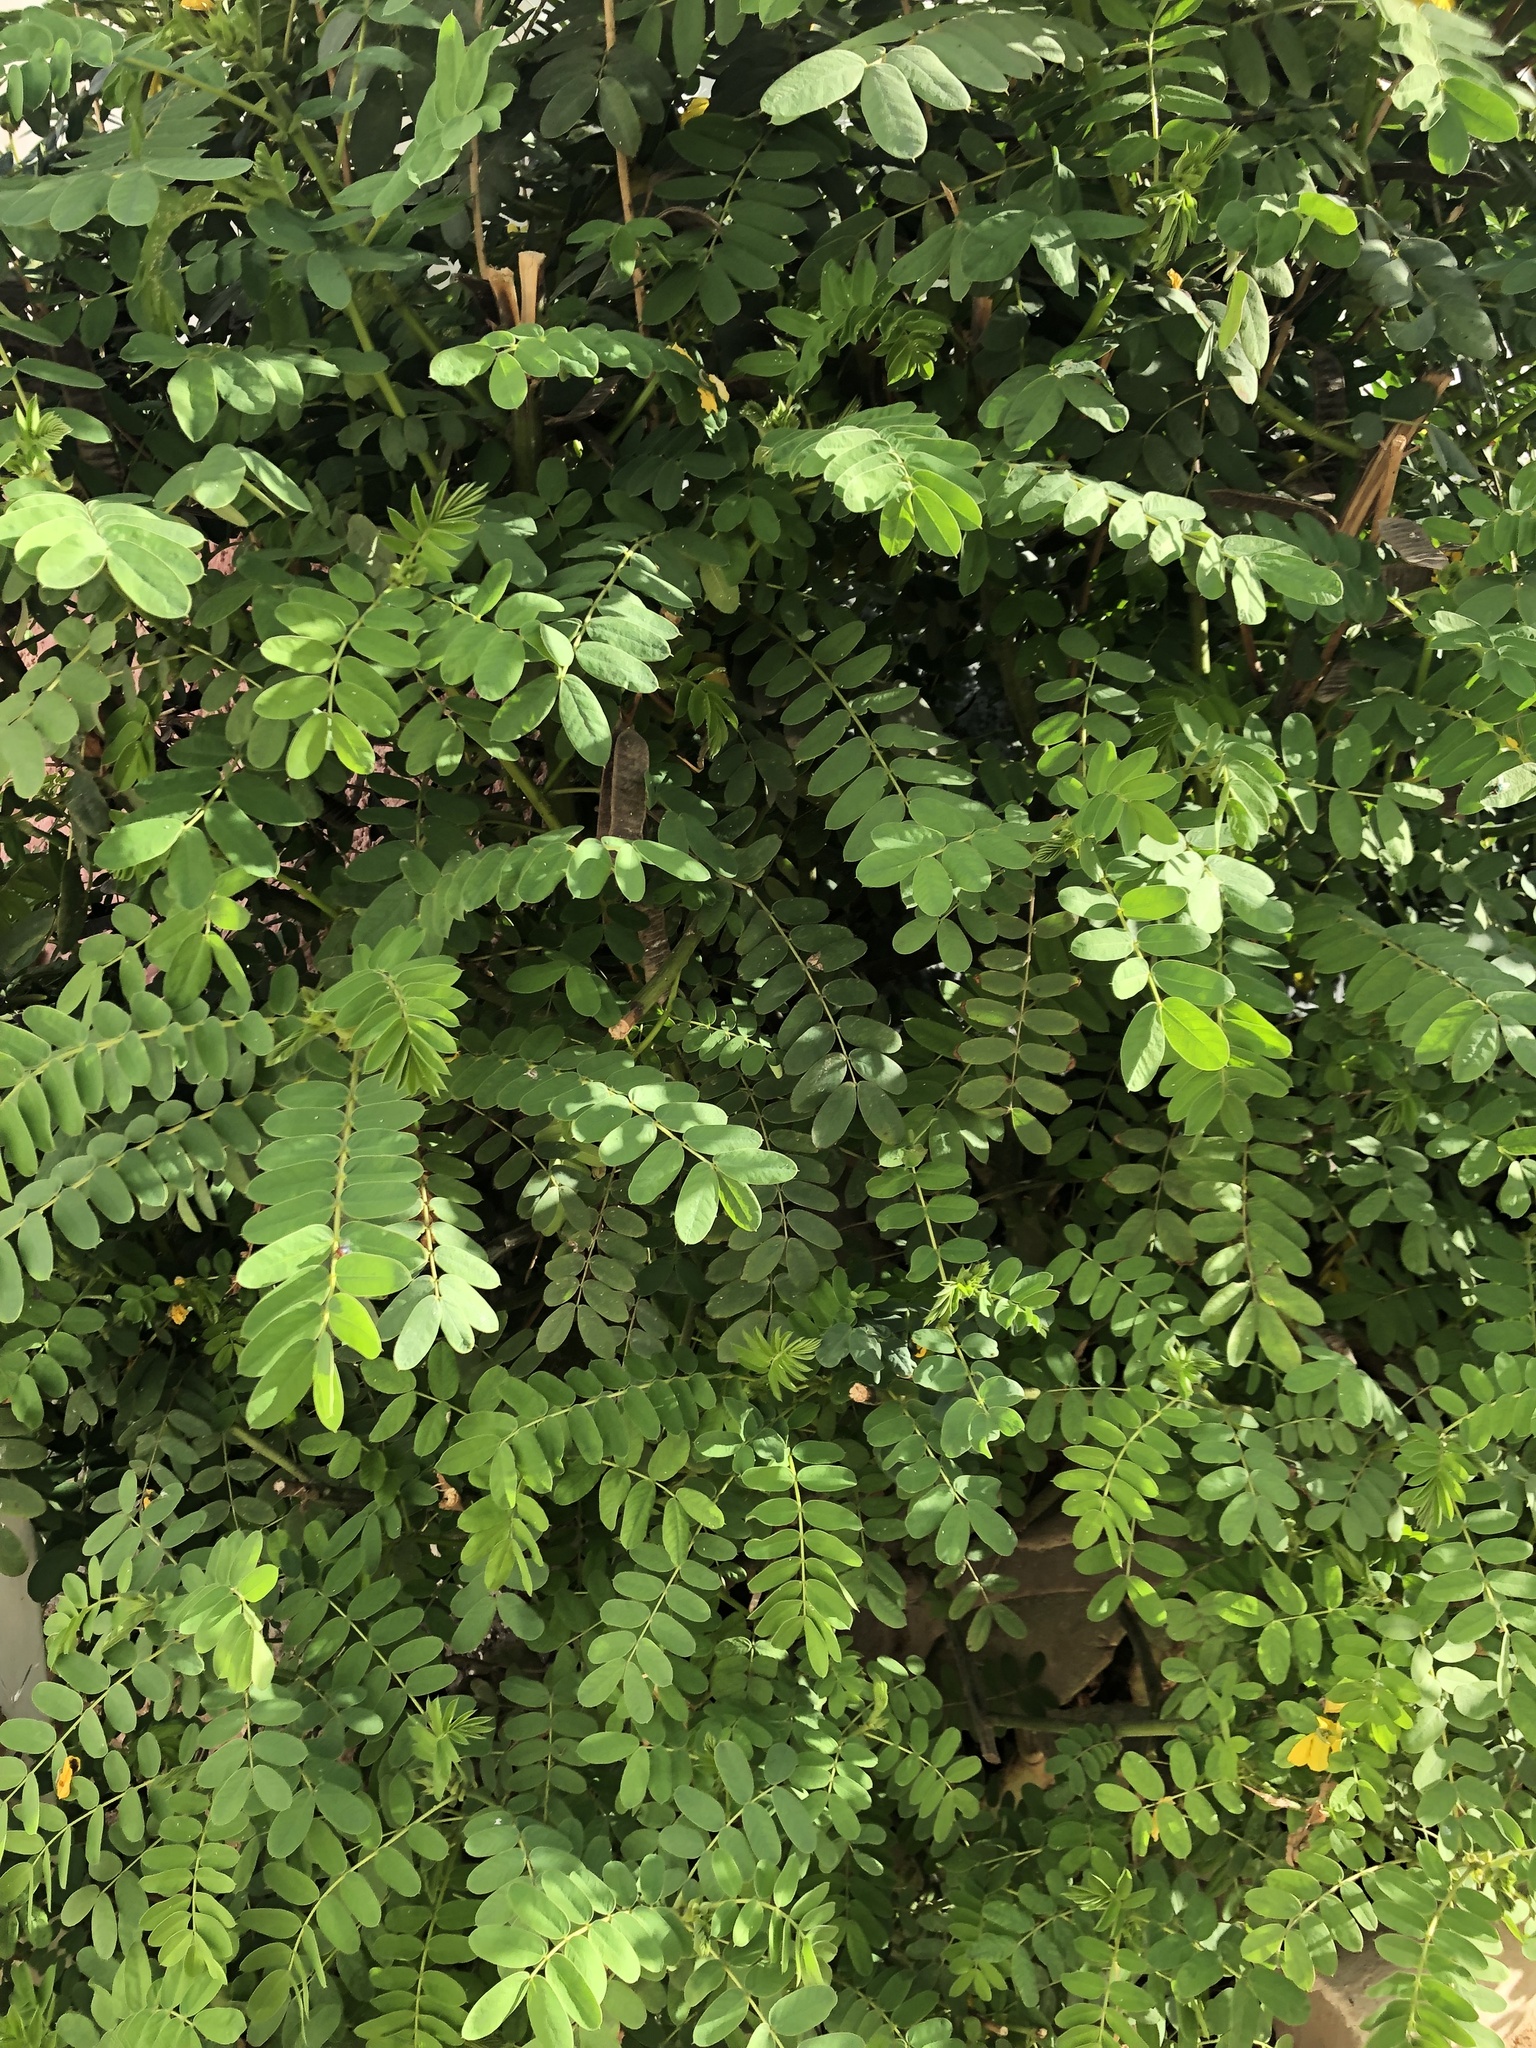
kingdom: Plantae
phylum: Tracheophyta
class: Magnoliopsida
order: Fabales
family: Fabaceae
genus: Senna
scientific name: Senna didymobotrya
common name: African senna
